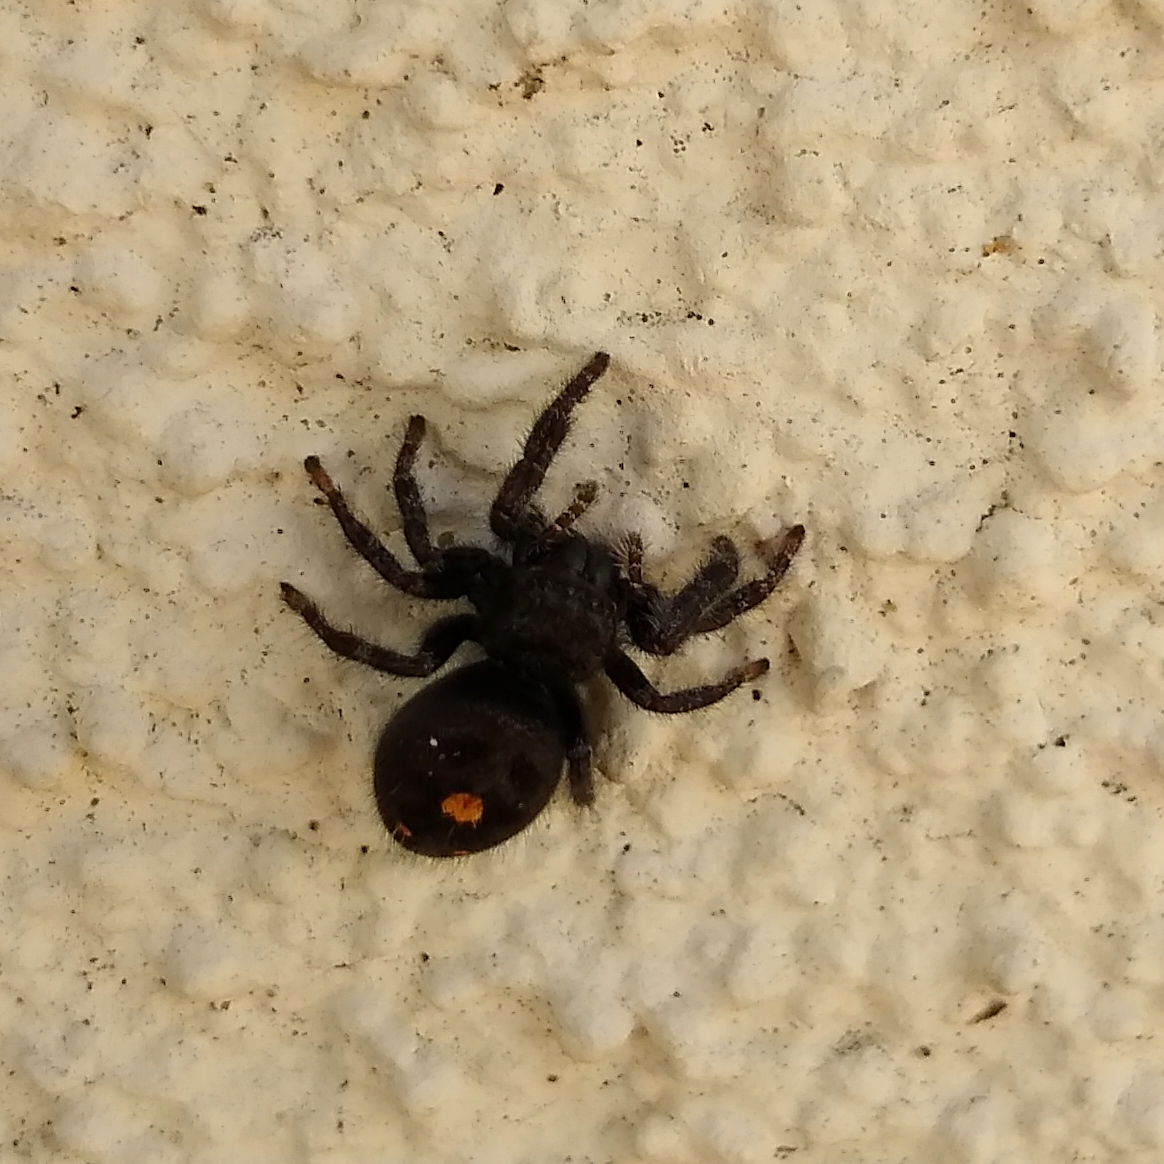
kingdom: Animalia
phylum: Arthropoda
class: Arachnida
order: Araneae
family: Salticidae
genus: Phidippus
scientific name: Phidippus audax
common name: Bold jumper
